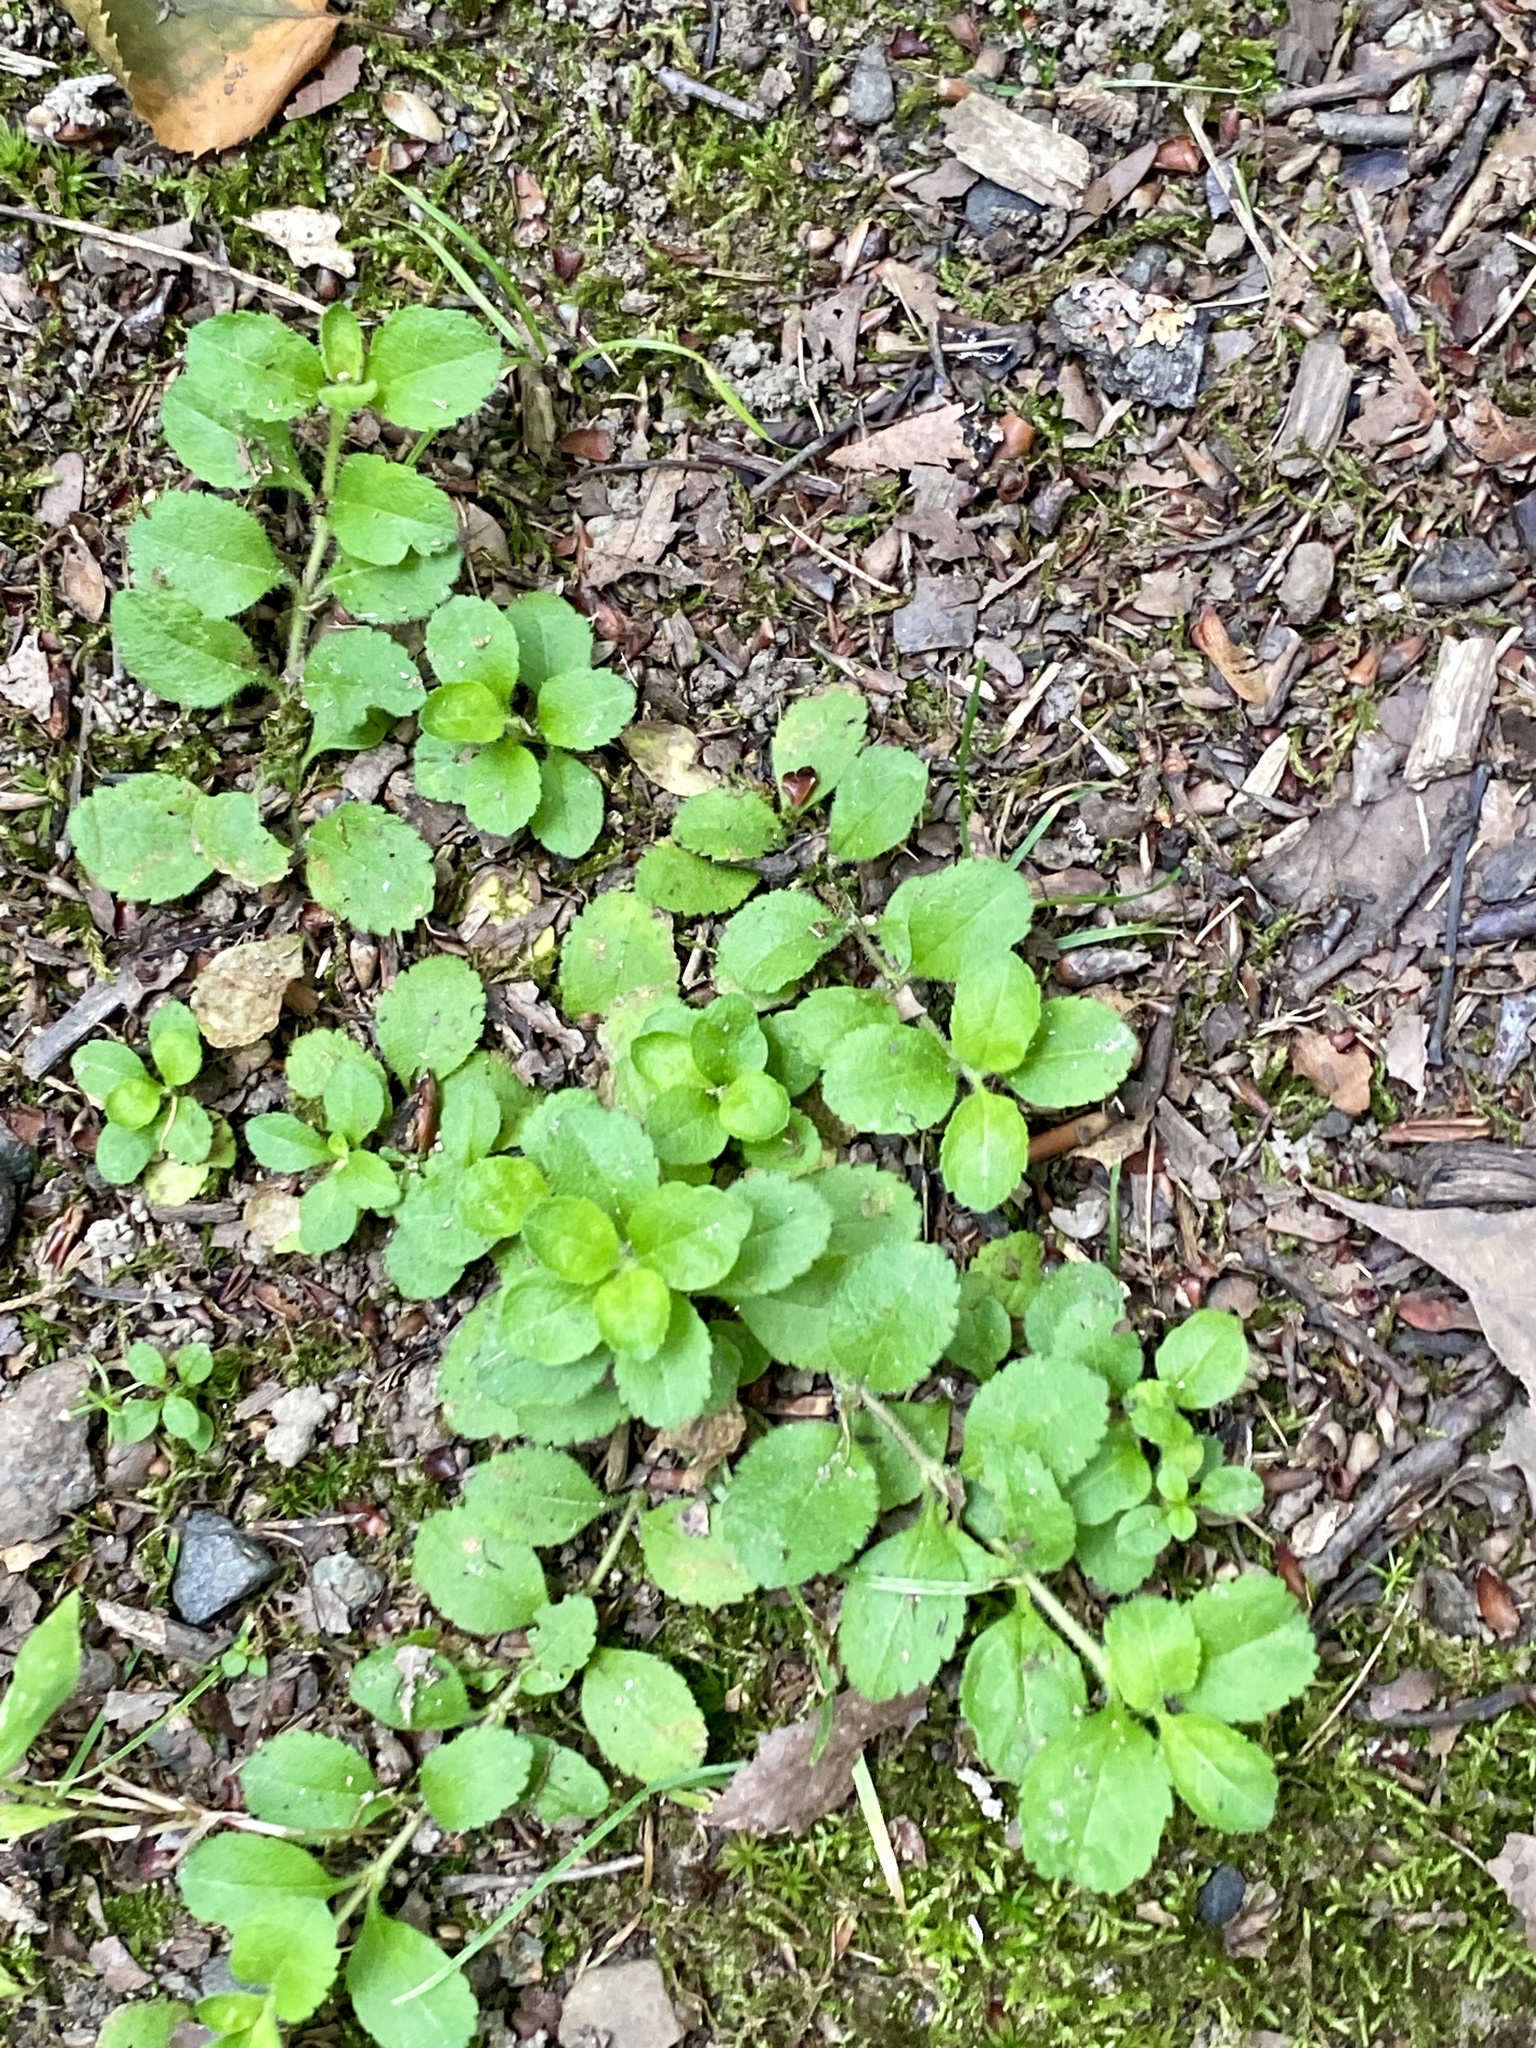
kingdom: Plantae
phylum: Tracheophyta
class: Magnoliopsida
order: Lamiales
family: Plantaginaceae
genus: Veronica
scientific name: Veronica officinalis
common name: Common speedwell
